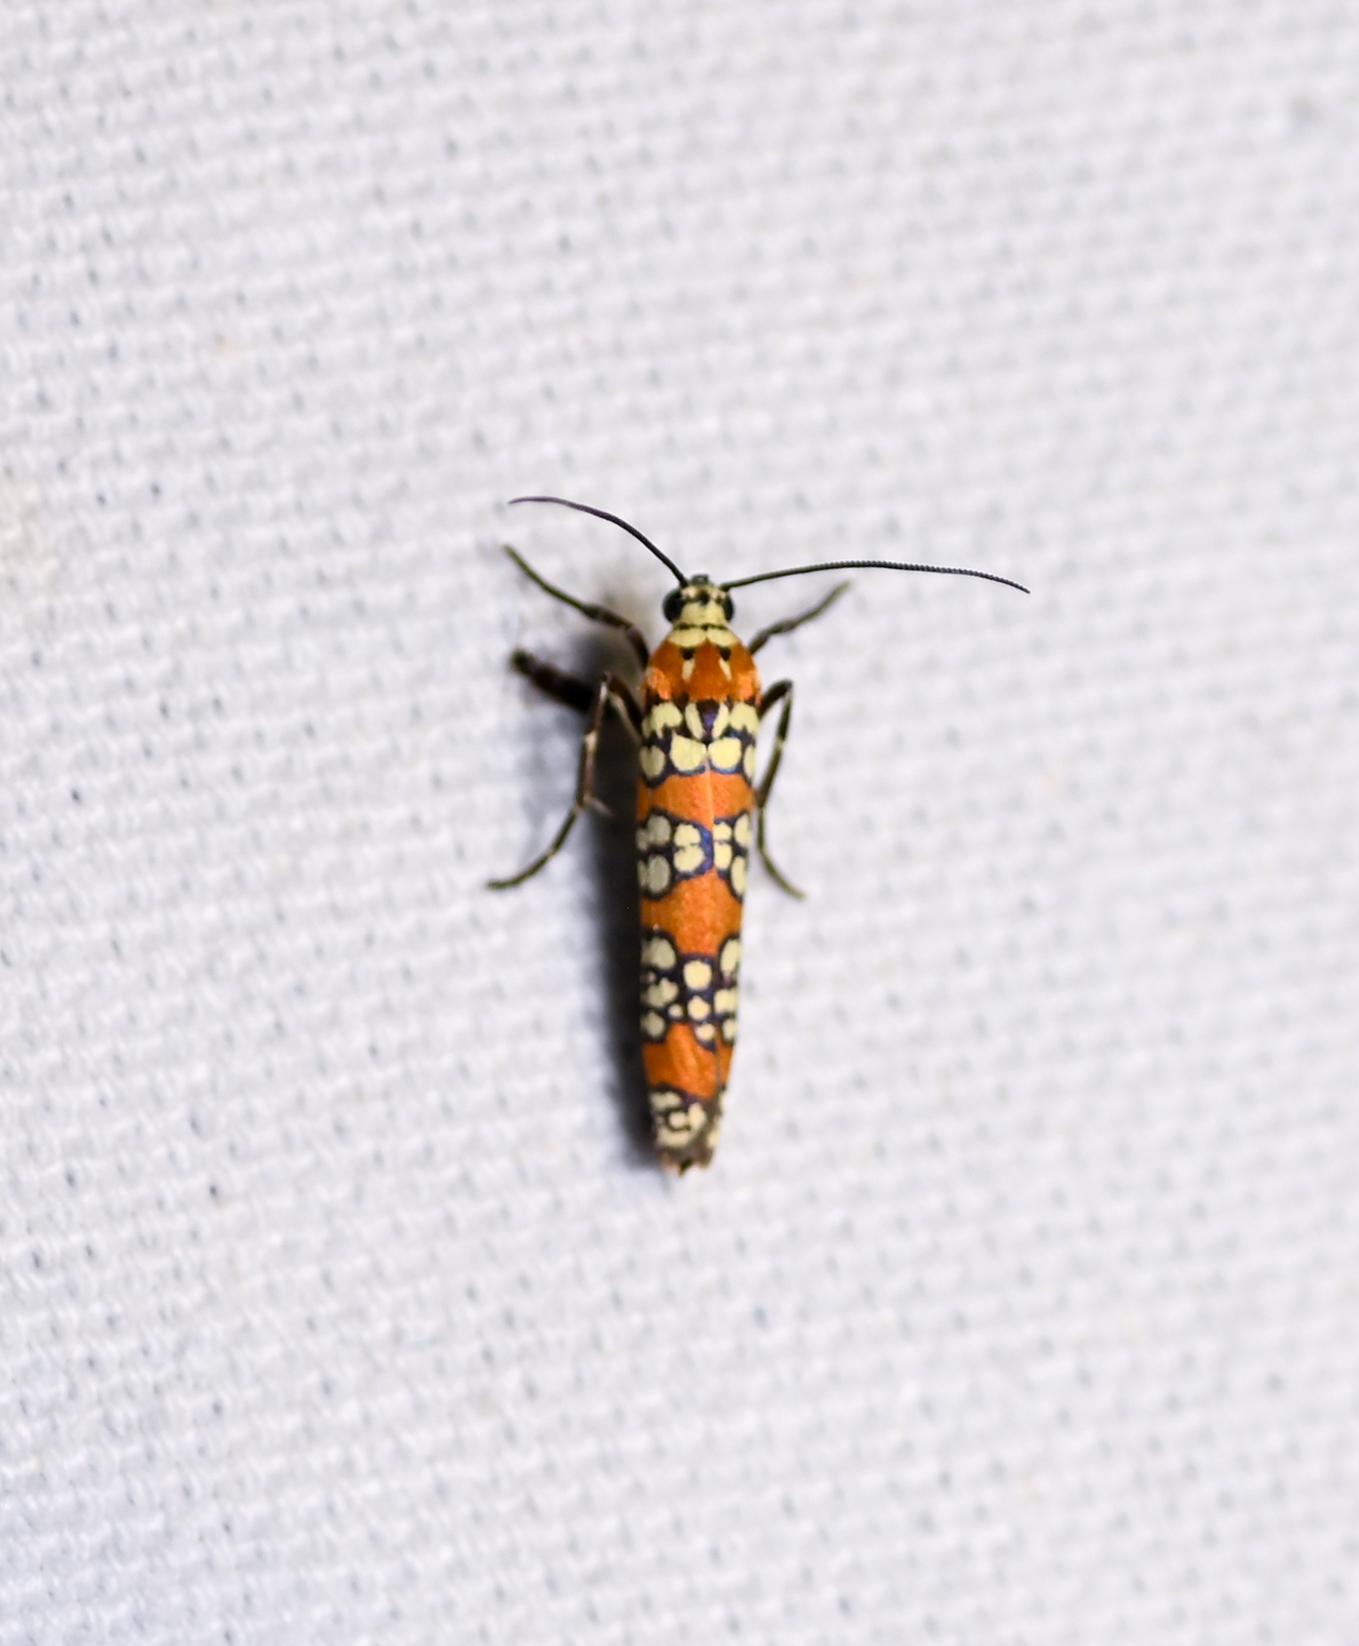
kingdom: Animalia
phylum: Arthropoda
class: Insecta
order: Lepidoptera
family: Attevidae
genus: Atteva
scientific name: Atteva punctella
